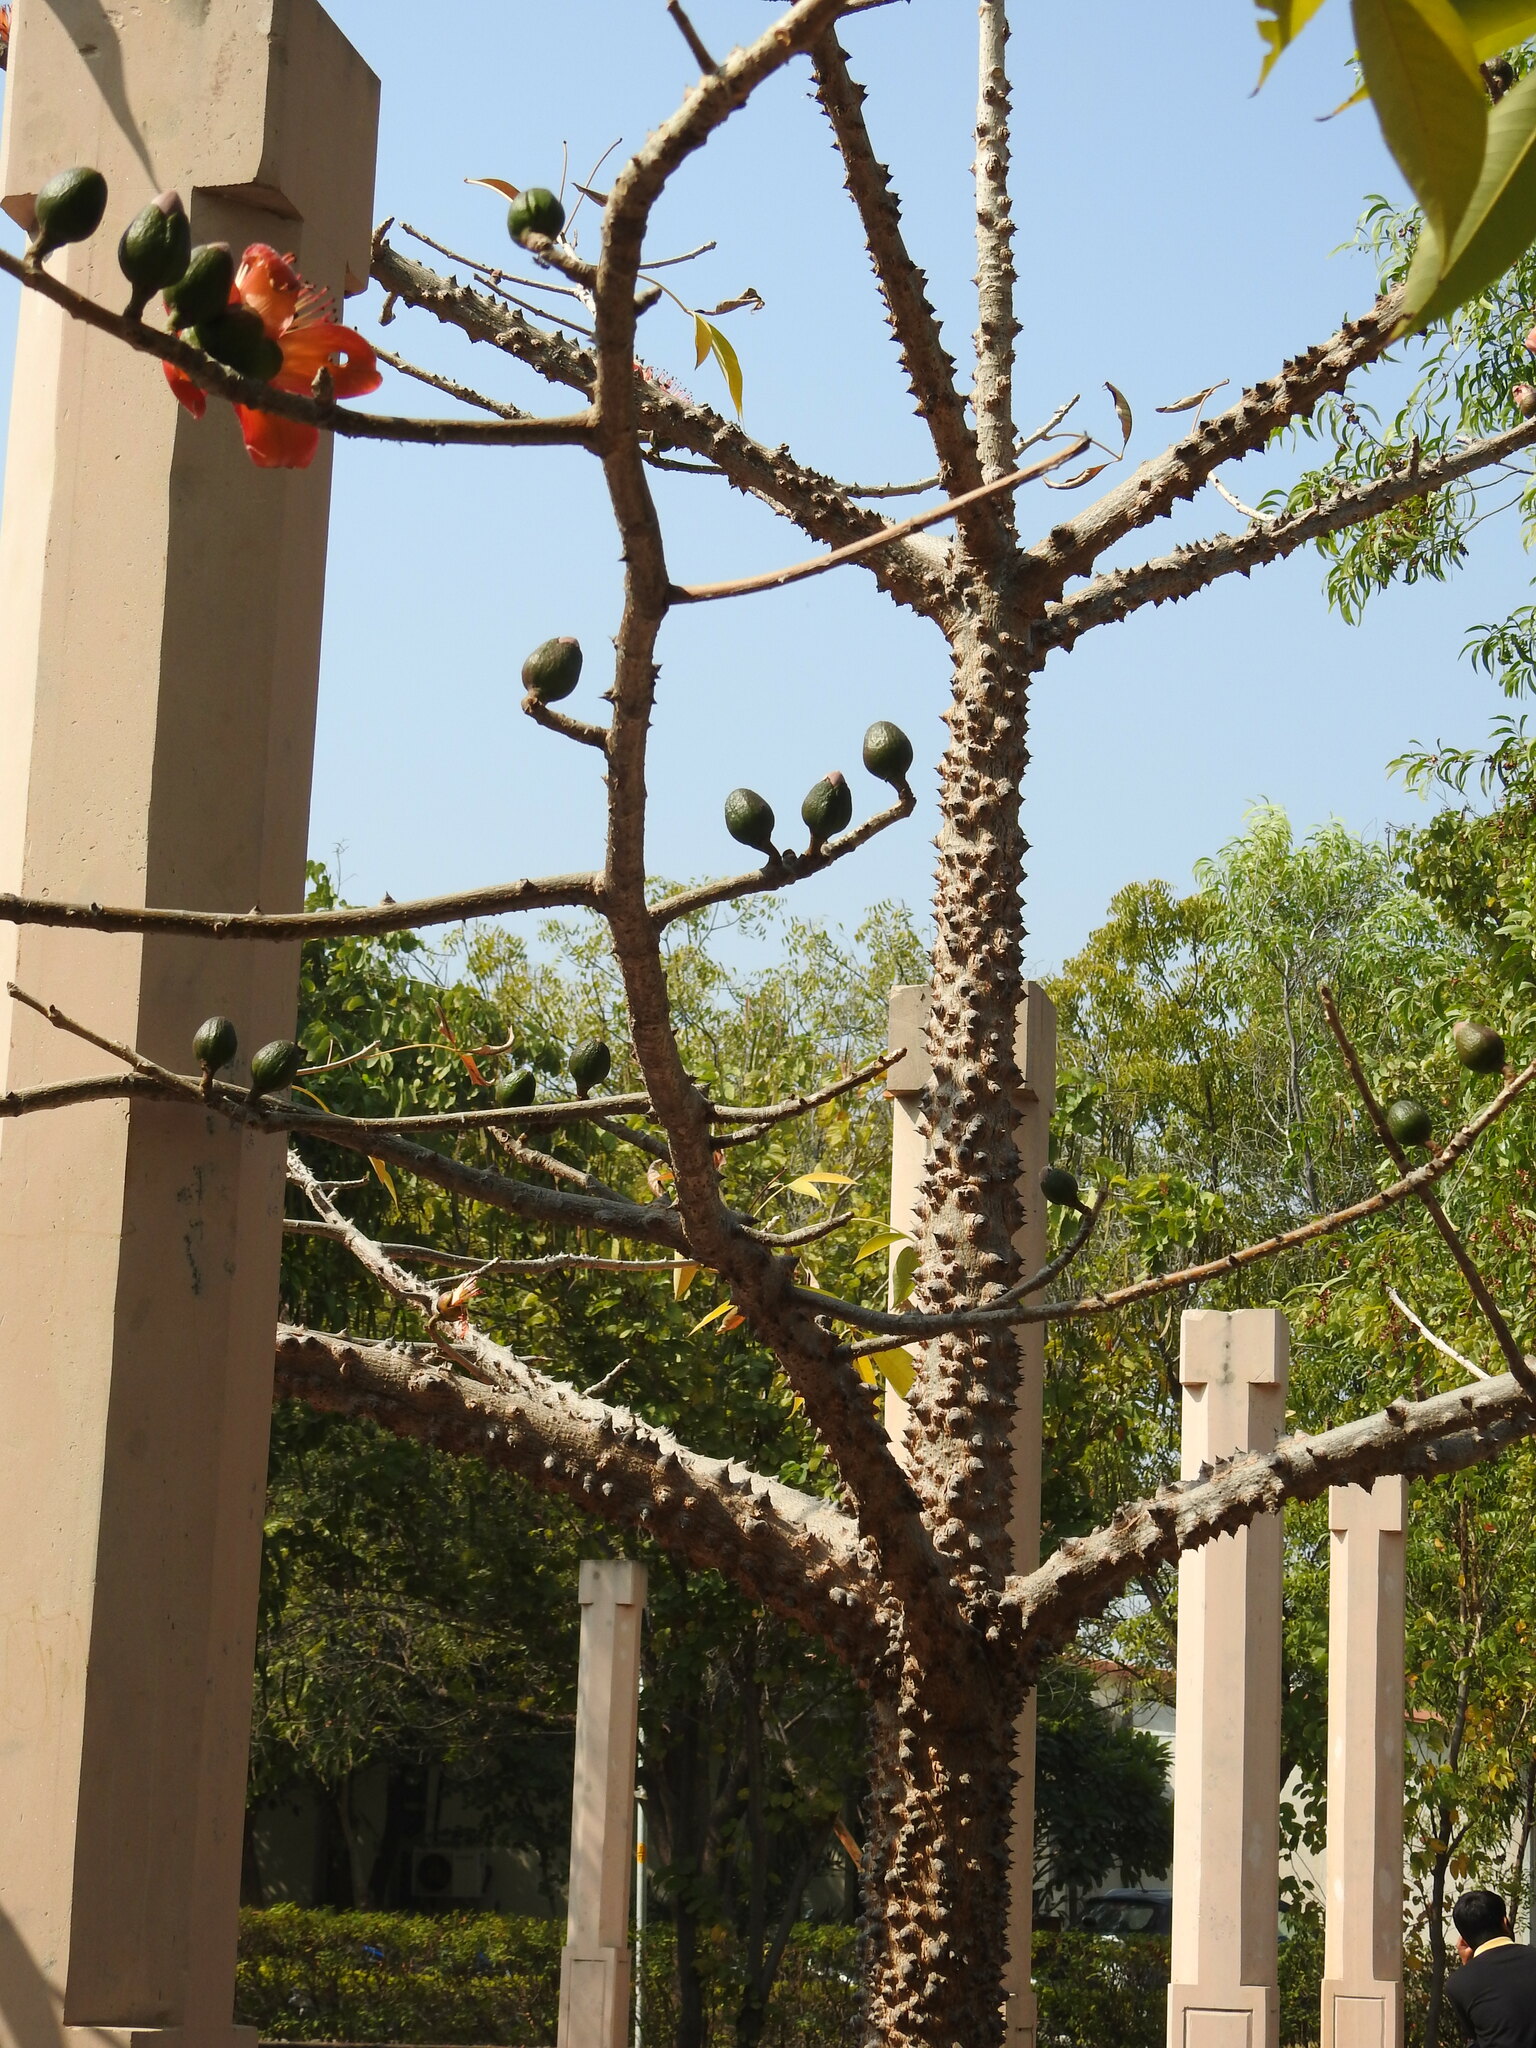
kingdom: Plantae
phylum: Tracheophyta
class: Magnoliopsida
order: Malvales
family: Malvaceae
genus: Bombax
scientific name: Bombax ceiba
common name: Northern-cottonwood
